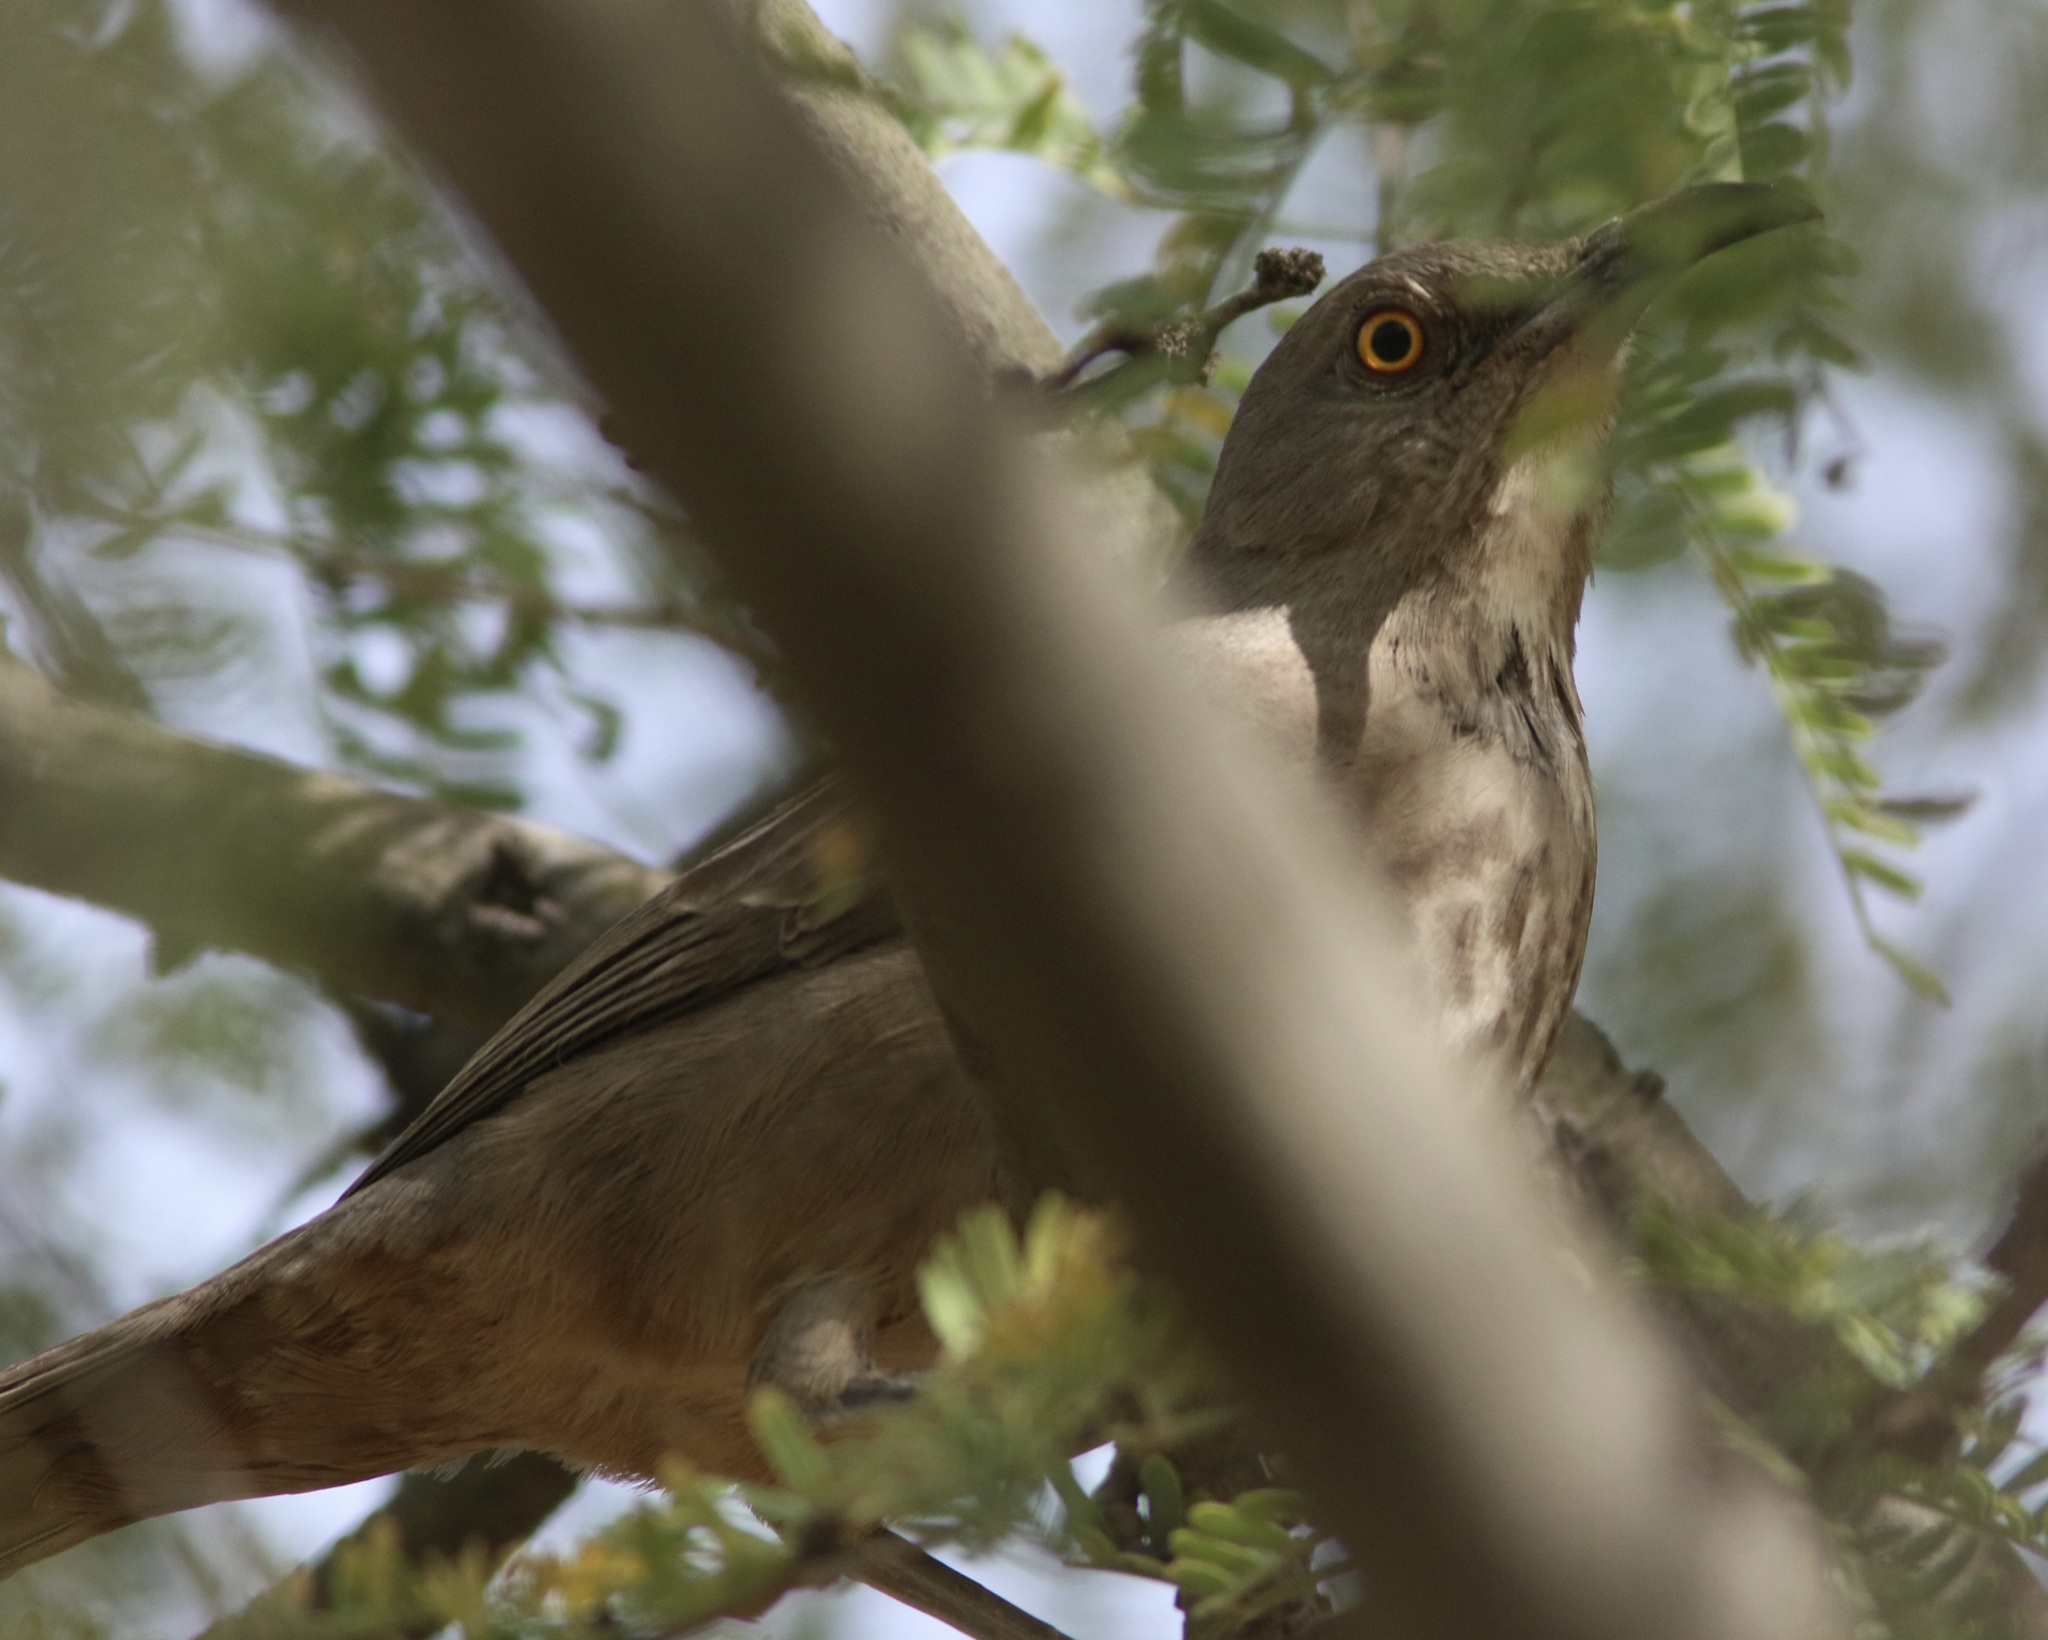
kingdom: Animalia
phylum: Chordata
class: Aves
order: Passeriformes
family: Mimidae
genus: Toxostoma
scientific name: Toxostoma curvirostre
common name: Curve-billed thrasher
